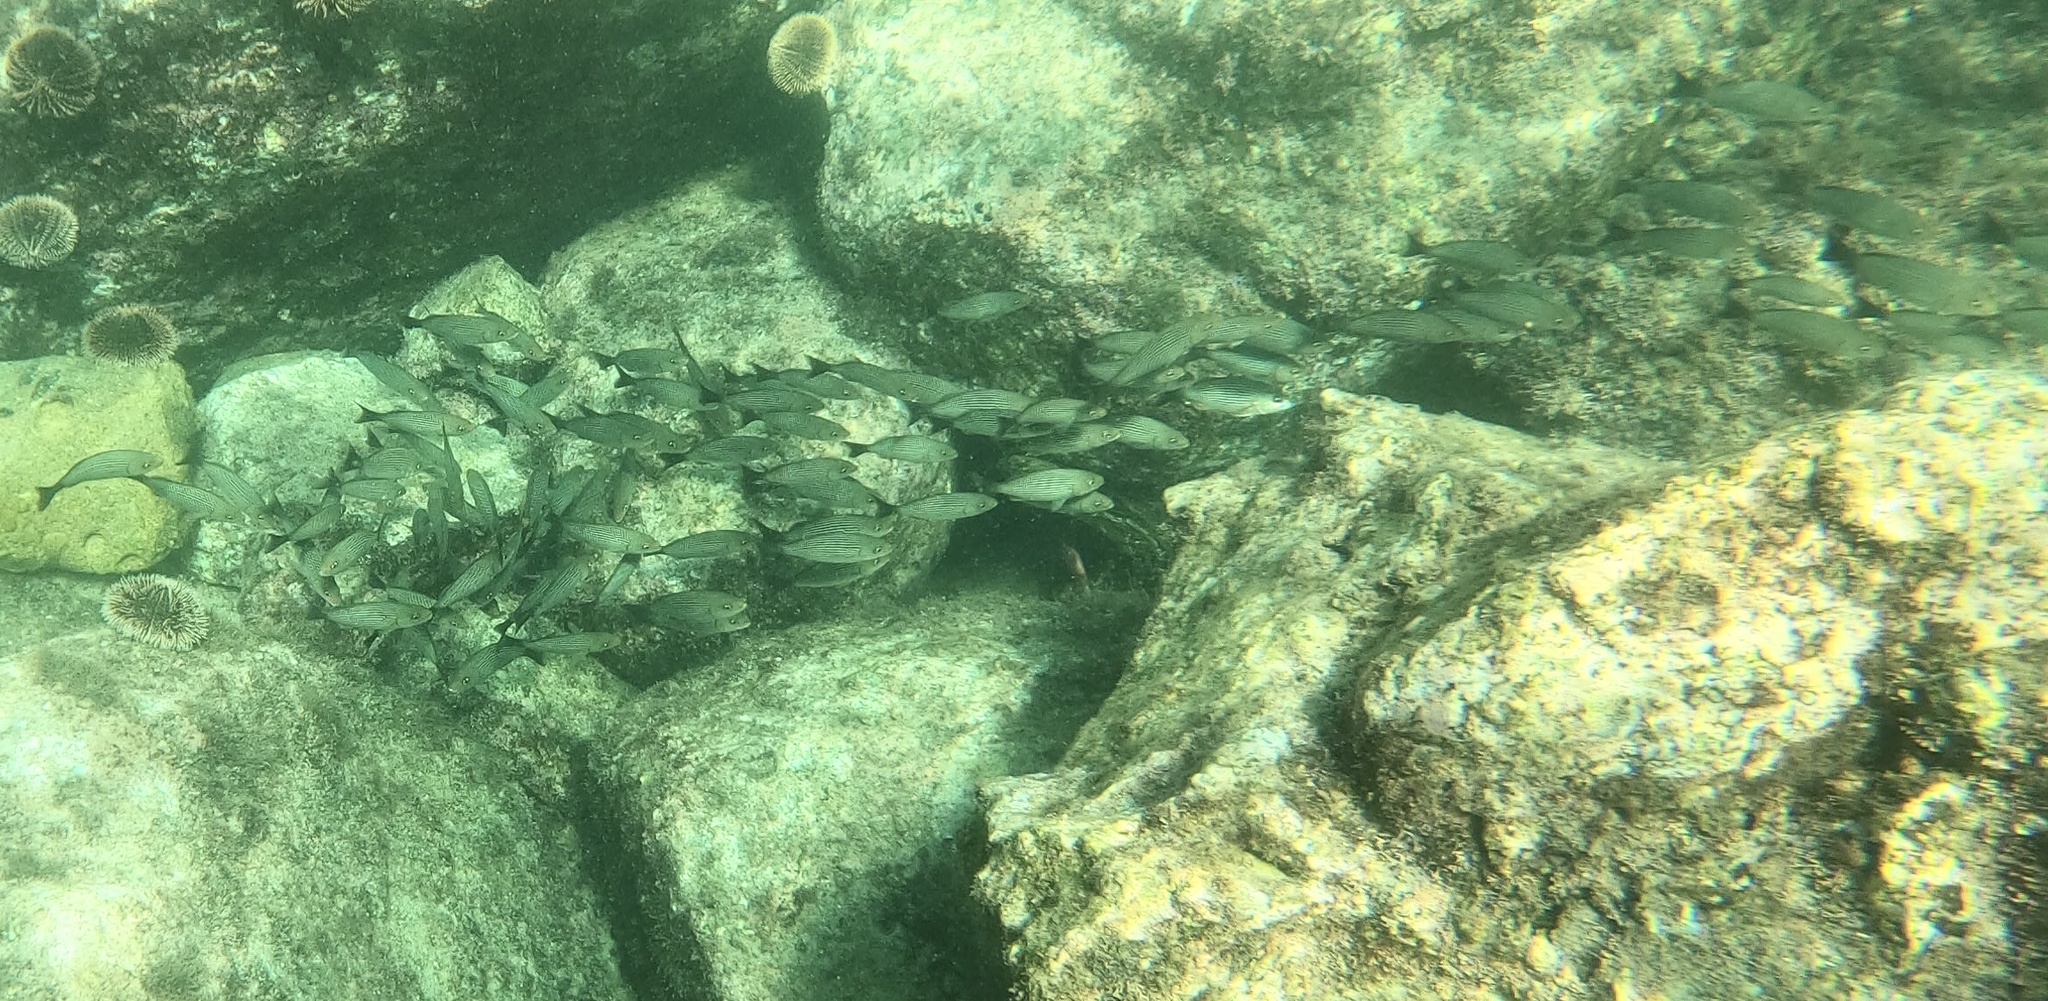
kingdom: Animalia
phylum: Chordata
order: Perciformes
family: Haemulidae
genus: Haemulon
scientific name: Haemulon maculicauda
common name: Spottail grunt
